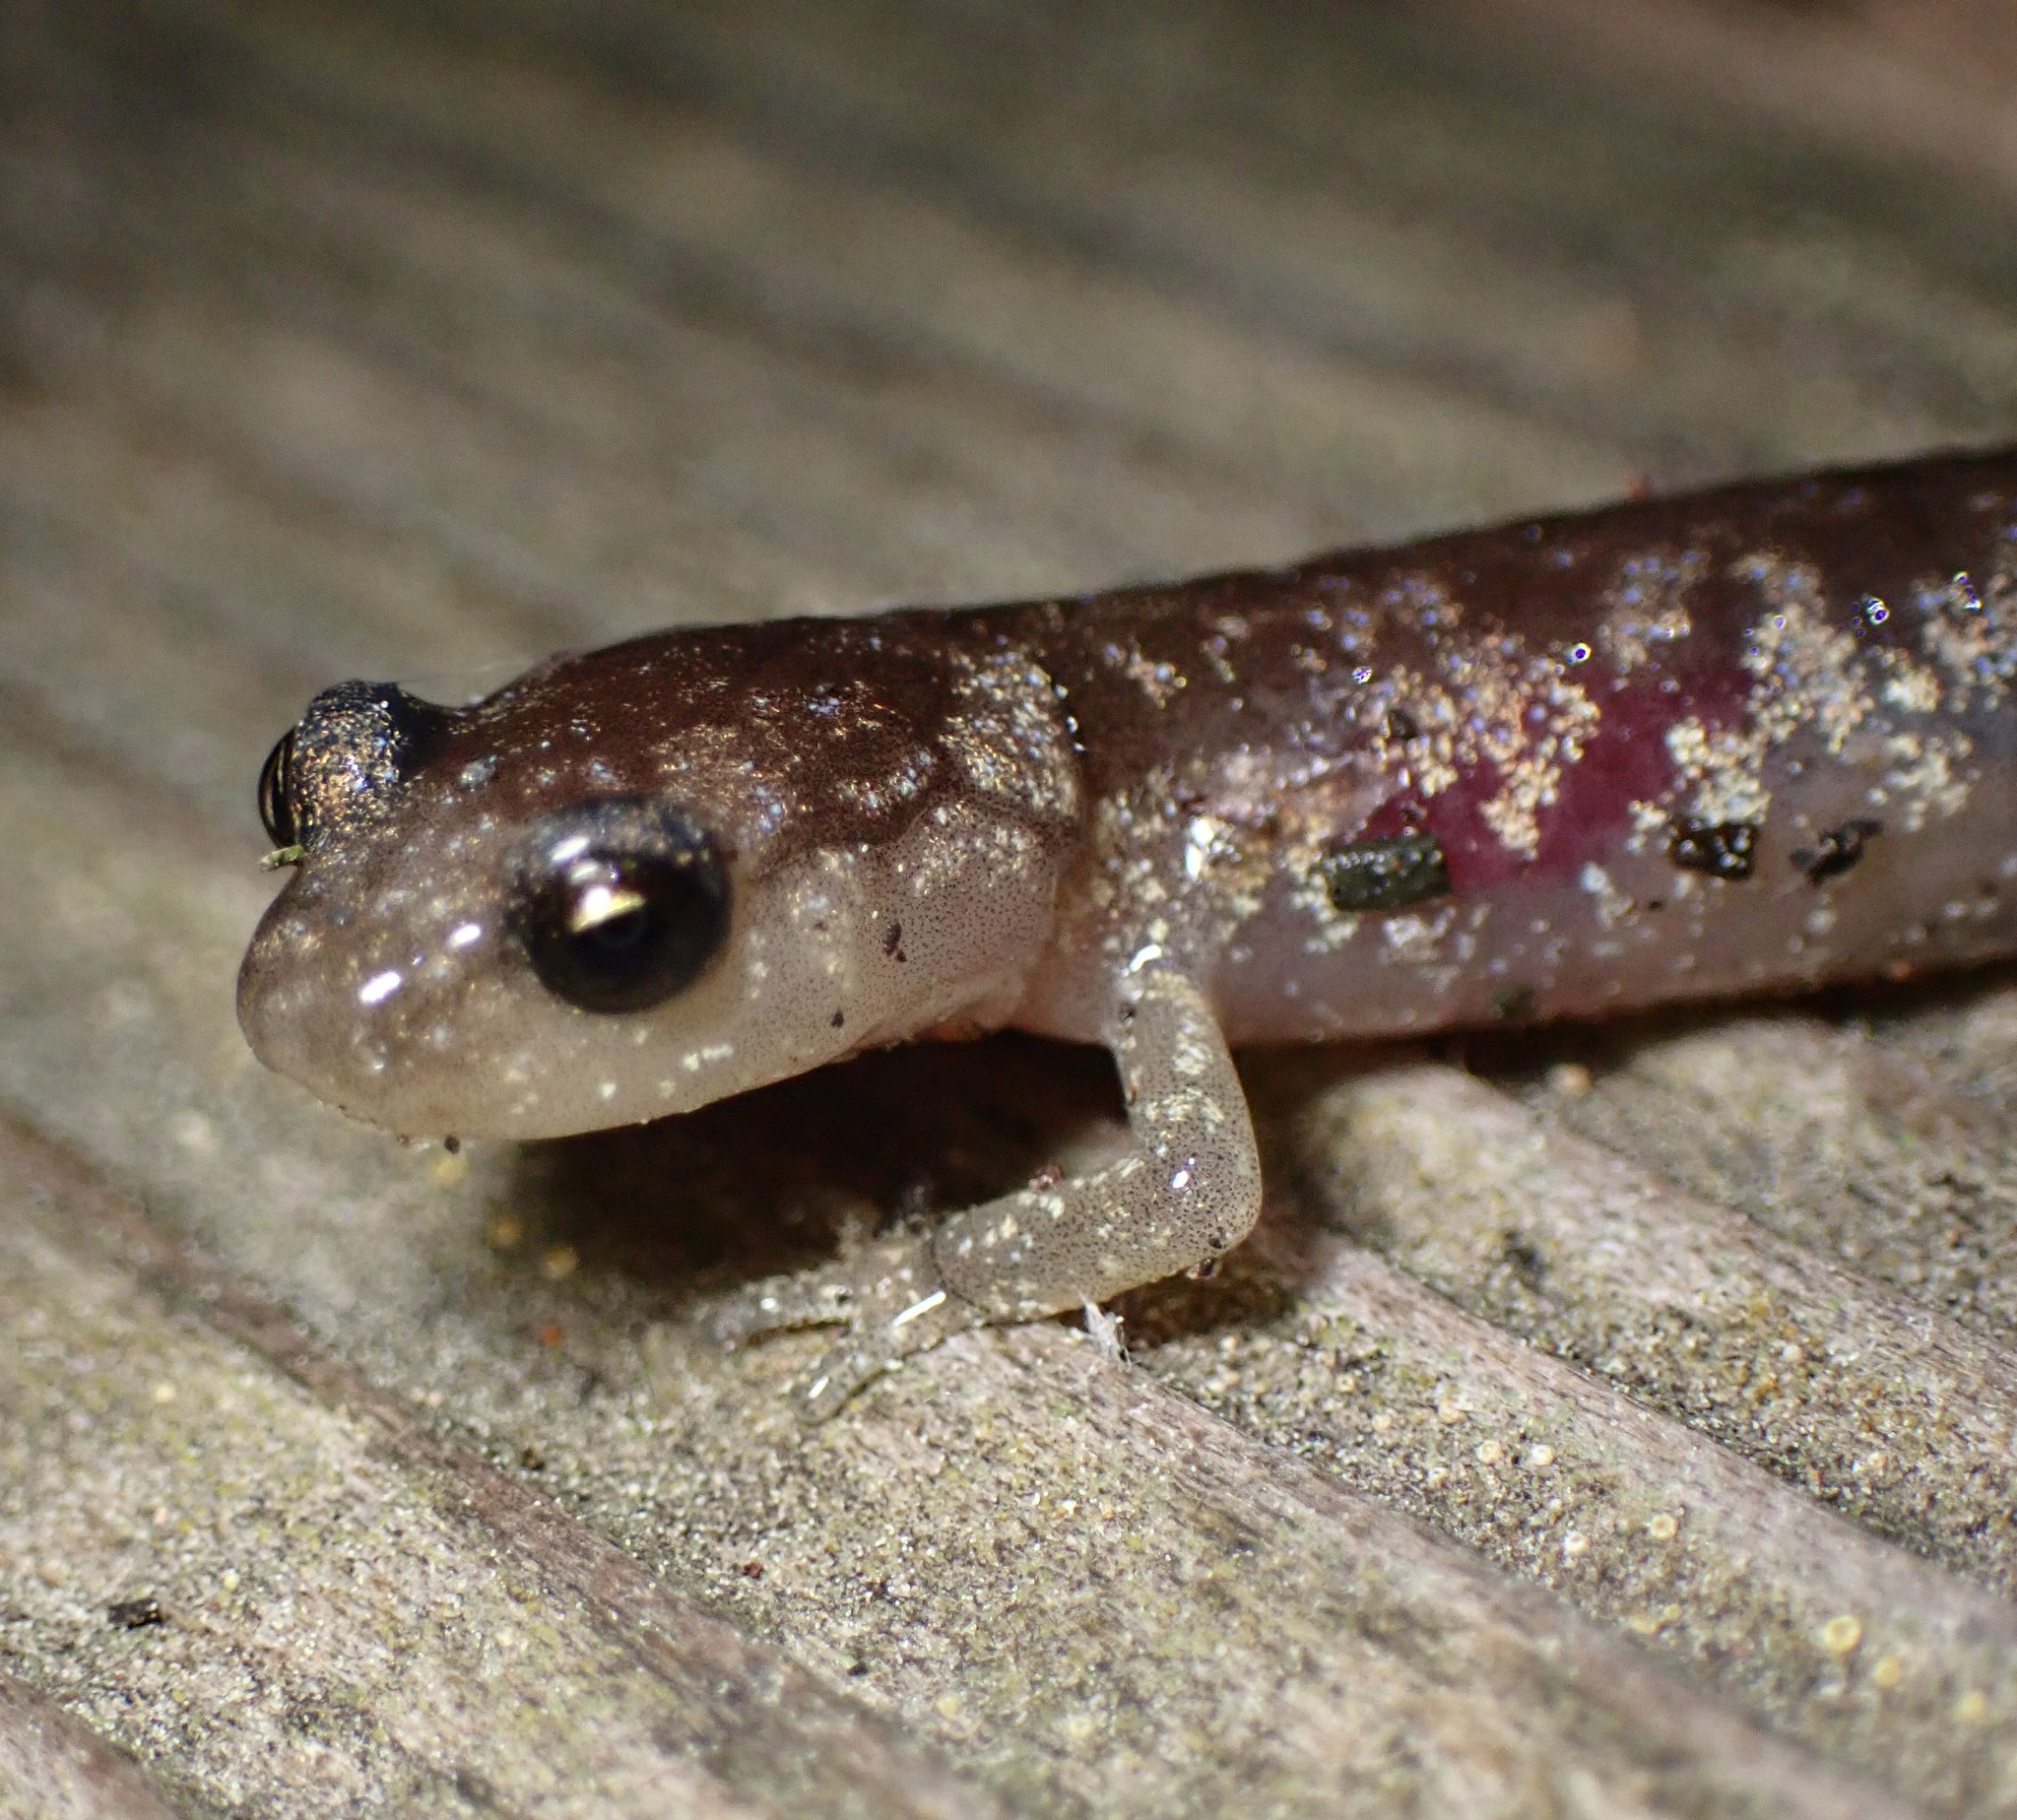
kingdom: Animalia
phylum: Chordata
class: Amphibia
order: Caudata
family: Plethodontidae
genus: Aneides
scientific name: Aneides lugubris
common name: Arboreal salamander
